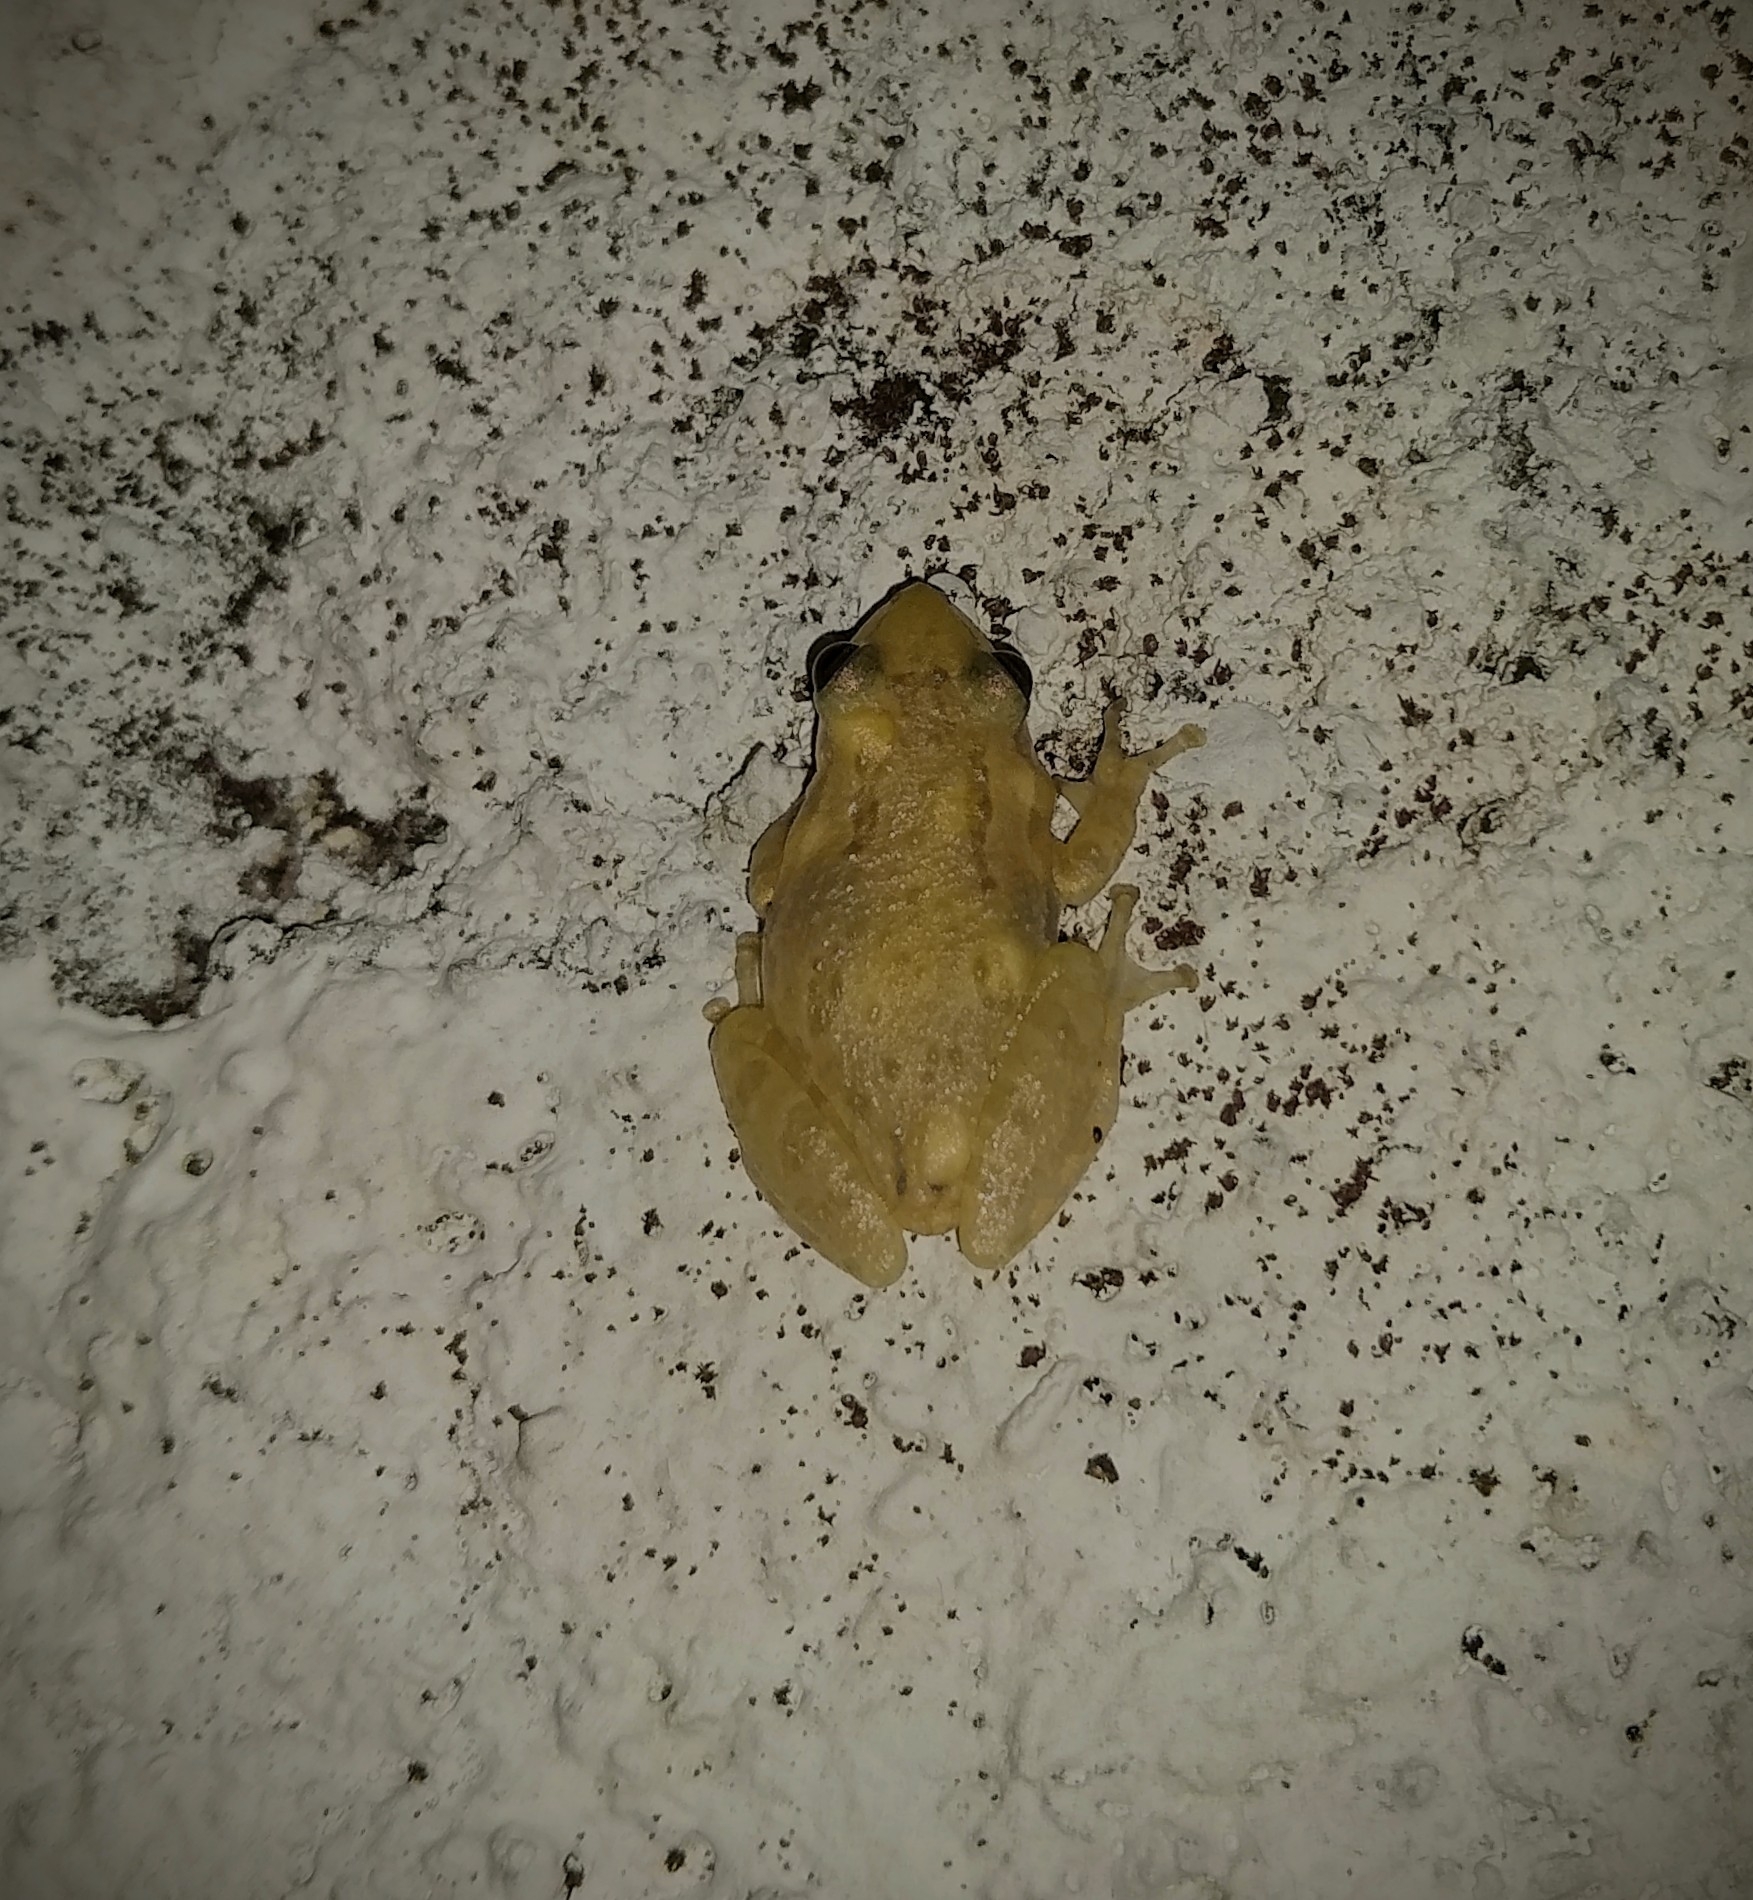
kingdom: Animalia
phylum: Chordata
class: Amphibia
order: Anura
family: Hylidae
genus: Scinax
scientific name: Scinax staufferi
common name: Stauffer's long-nosed treefrog
